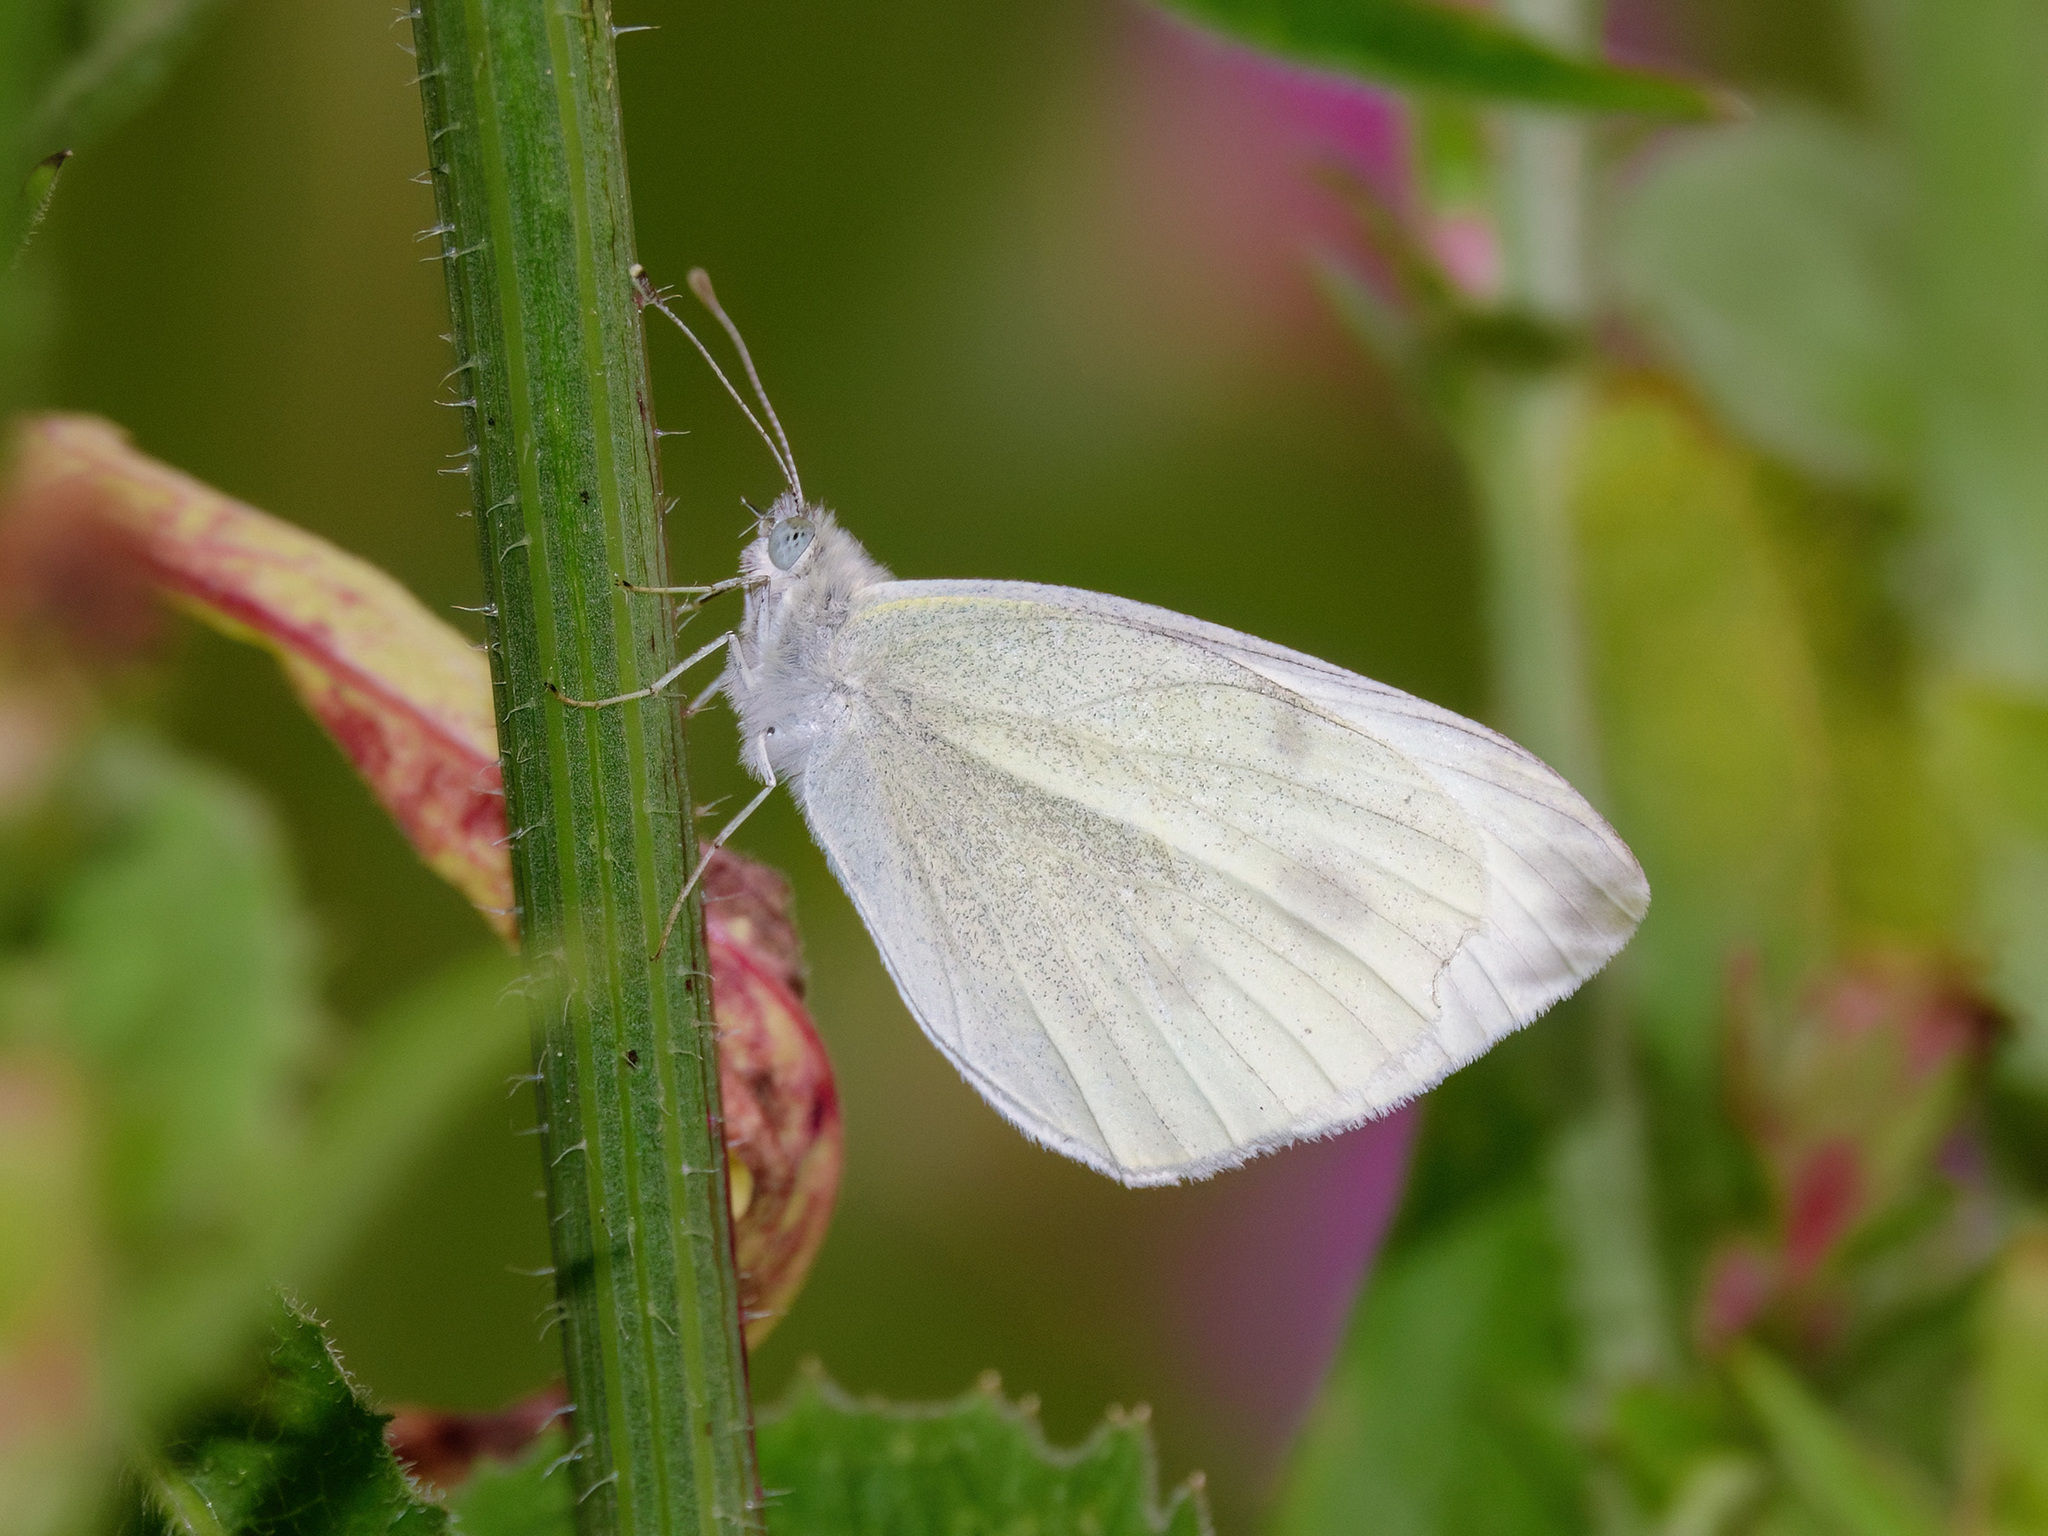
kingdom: Animalia
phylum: Arthropoda
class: Insecta
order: Lepidoptera
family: Pieridae
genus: Pieris
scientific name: Pieris rapae
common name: Small white
